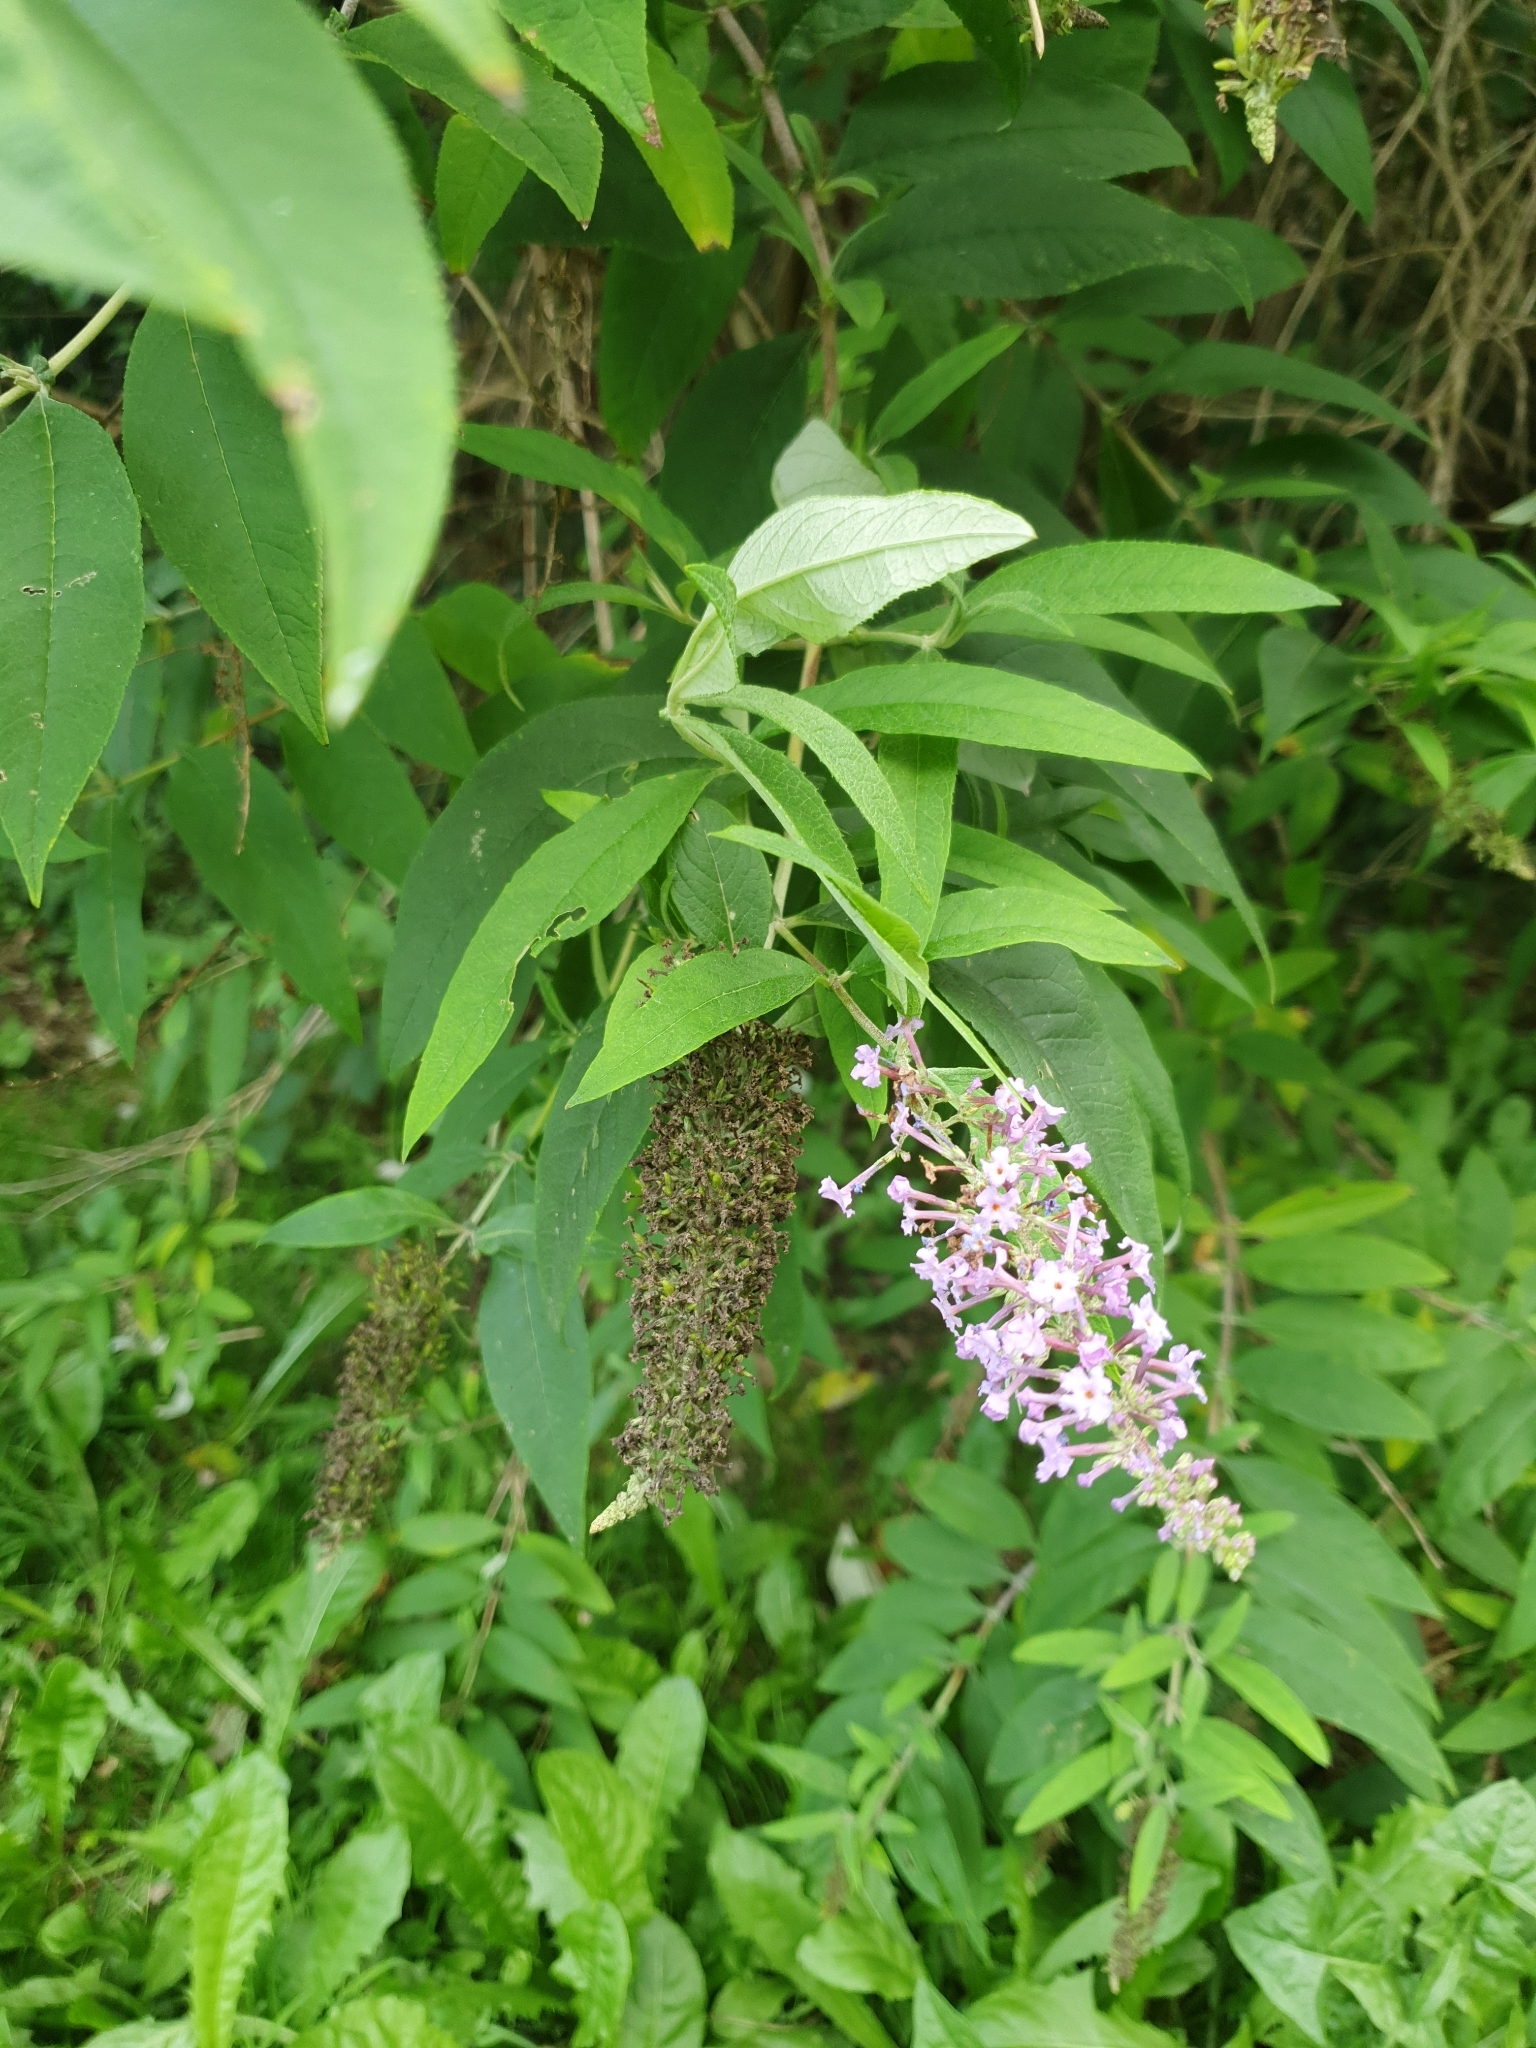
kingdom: Plantae
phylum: Tracheophyta
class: Magnoliopsida
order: Lamiales
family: Scrophulariaceae
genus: Buddleja
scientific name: Buddleja davidii
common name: Butterfly-bush
